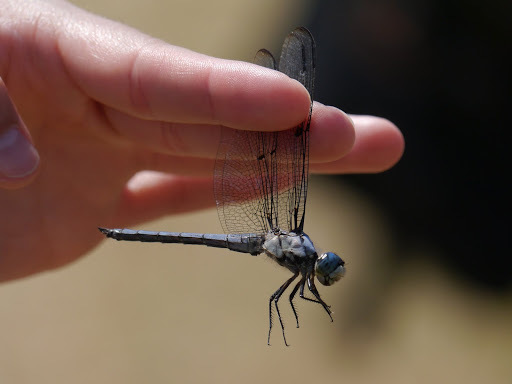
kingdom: Animalia
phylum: Arthropoda
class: Insecta
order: Odonata
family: Libellulidae
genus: Libellula
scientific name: Libellula vibrans
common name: Great blue skimmer
